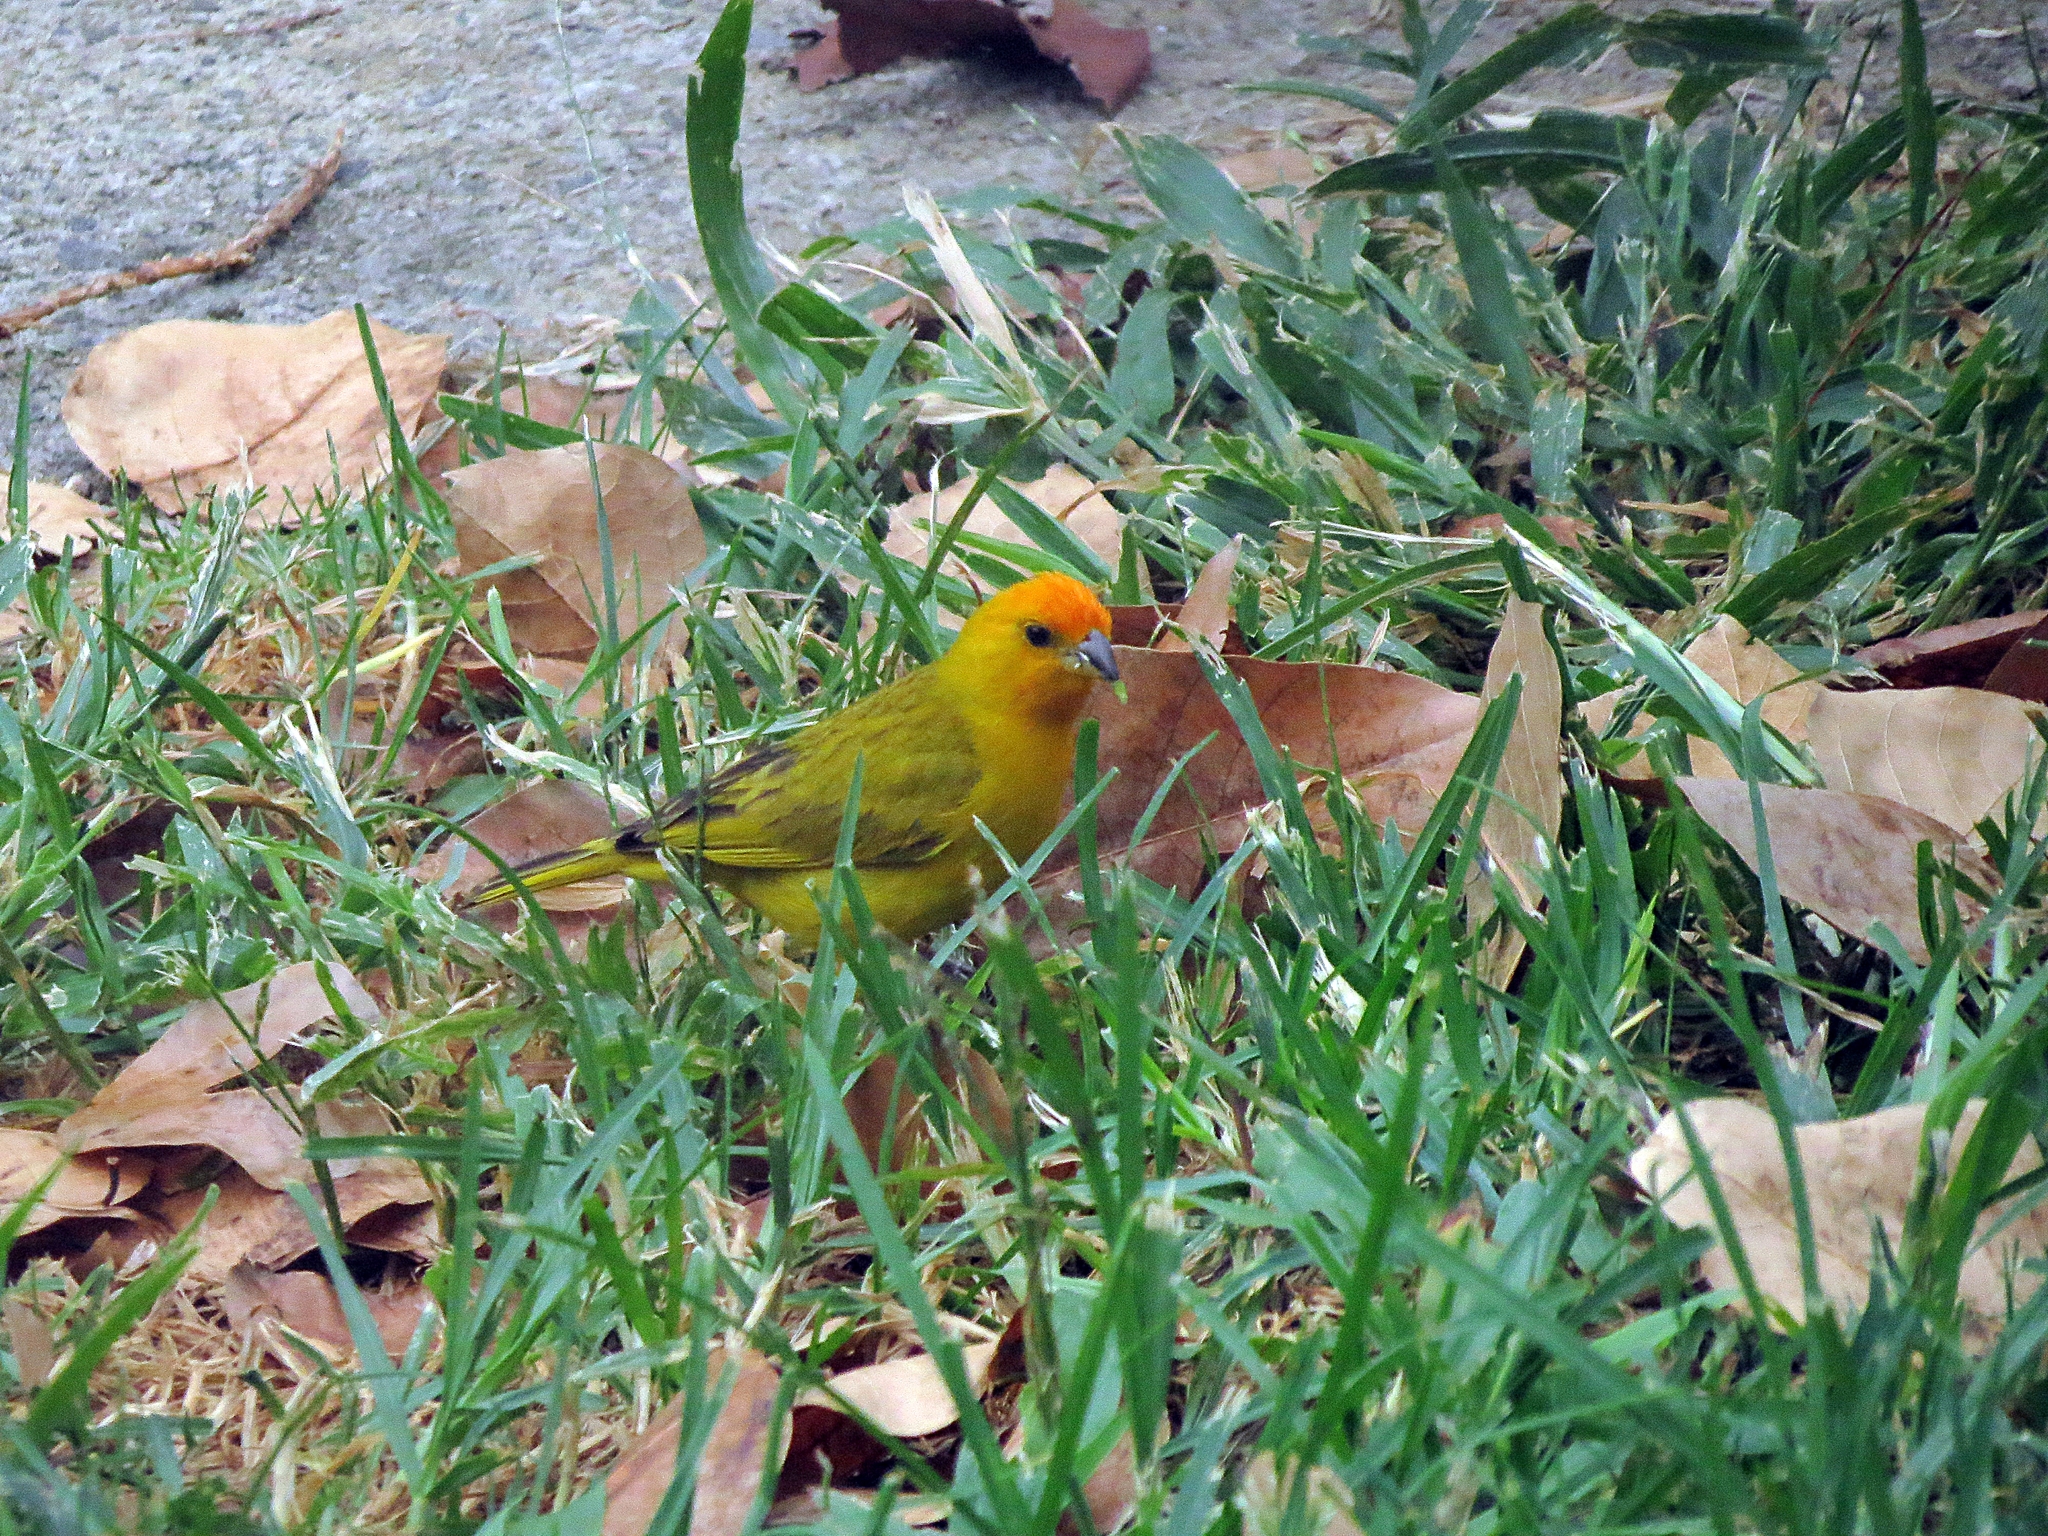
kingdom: Animalia
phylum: Chordata
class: Aves
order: Passeriformes
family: Thraupidae
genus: Sicalis
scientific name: Sicalis flaveola
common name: Saffron finch
